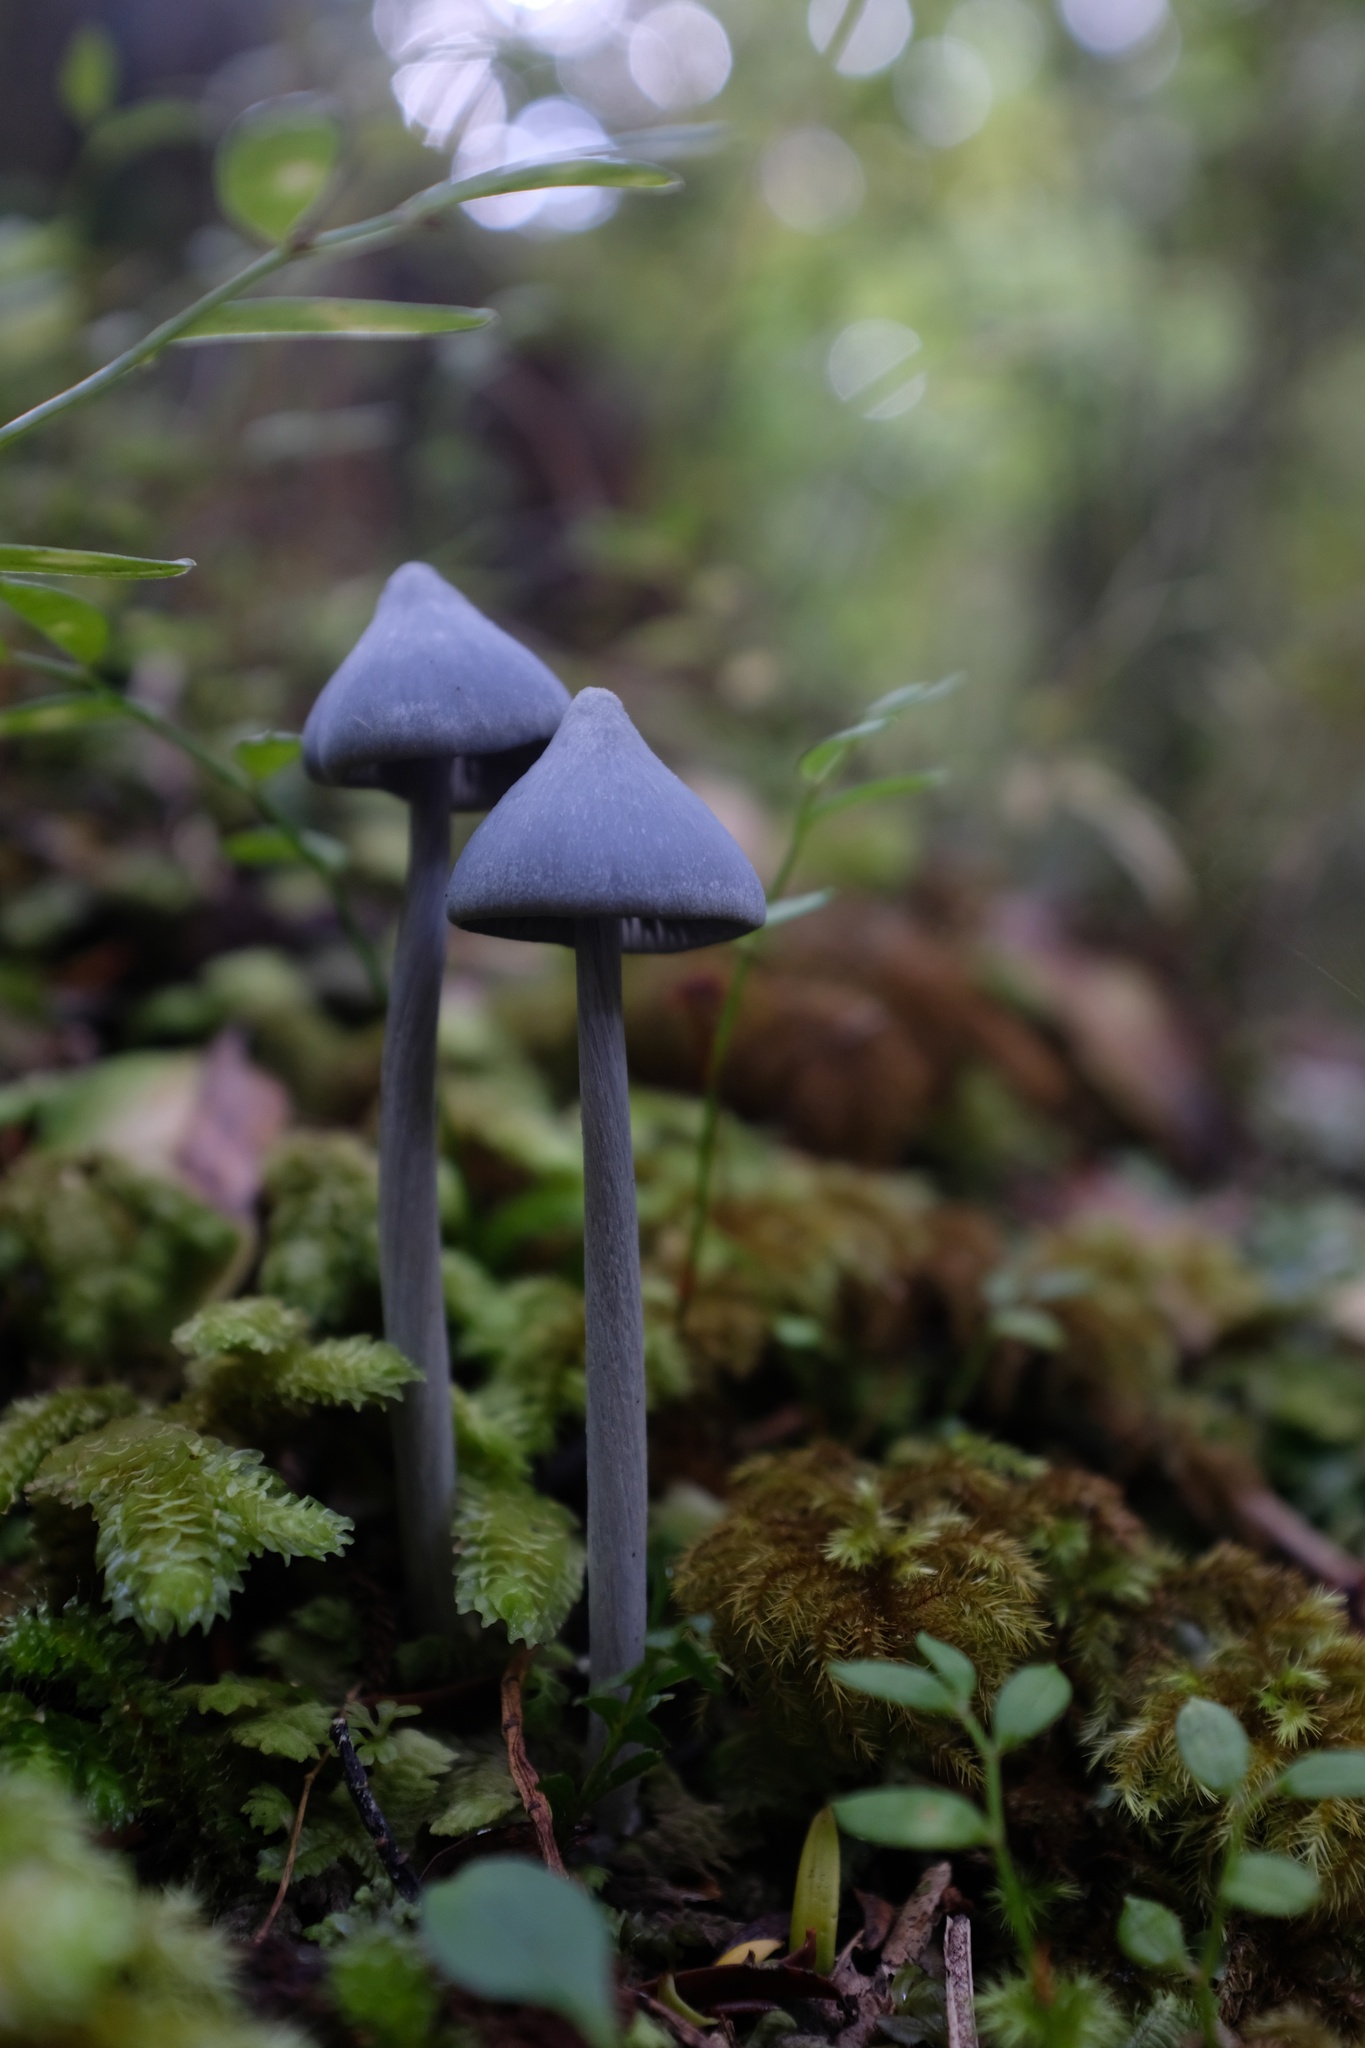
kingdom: Fungi
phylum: Basidiomycota
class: Agaricomycetes
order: Agaricales
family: Entolomataceae
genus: Entoloma
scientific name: Entoloma hochstetteri
